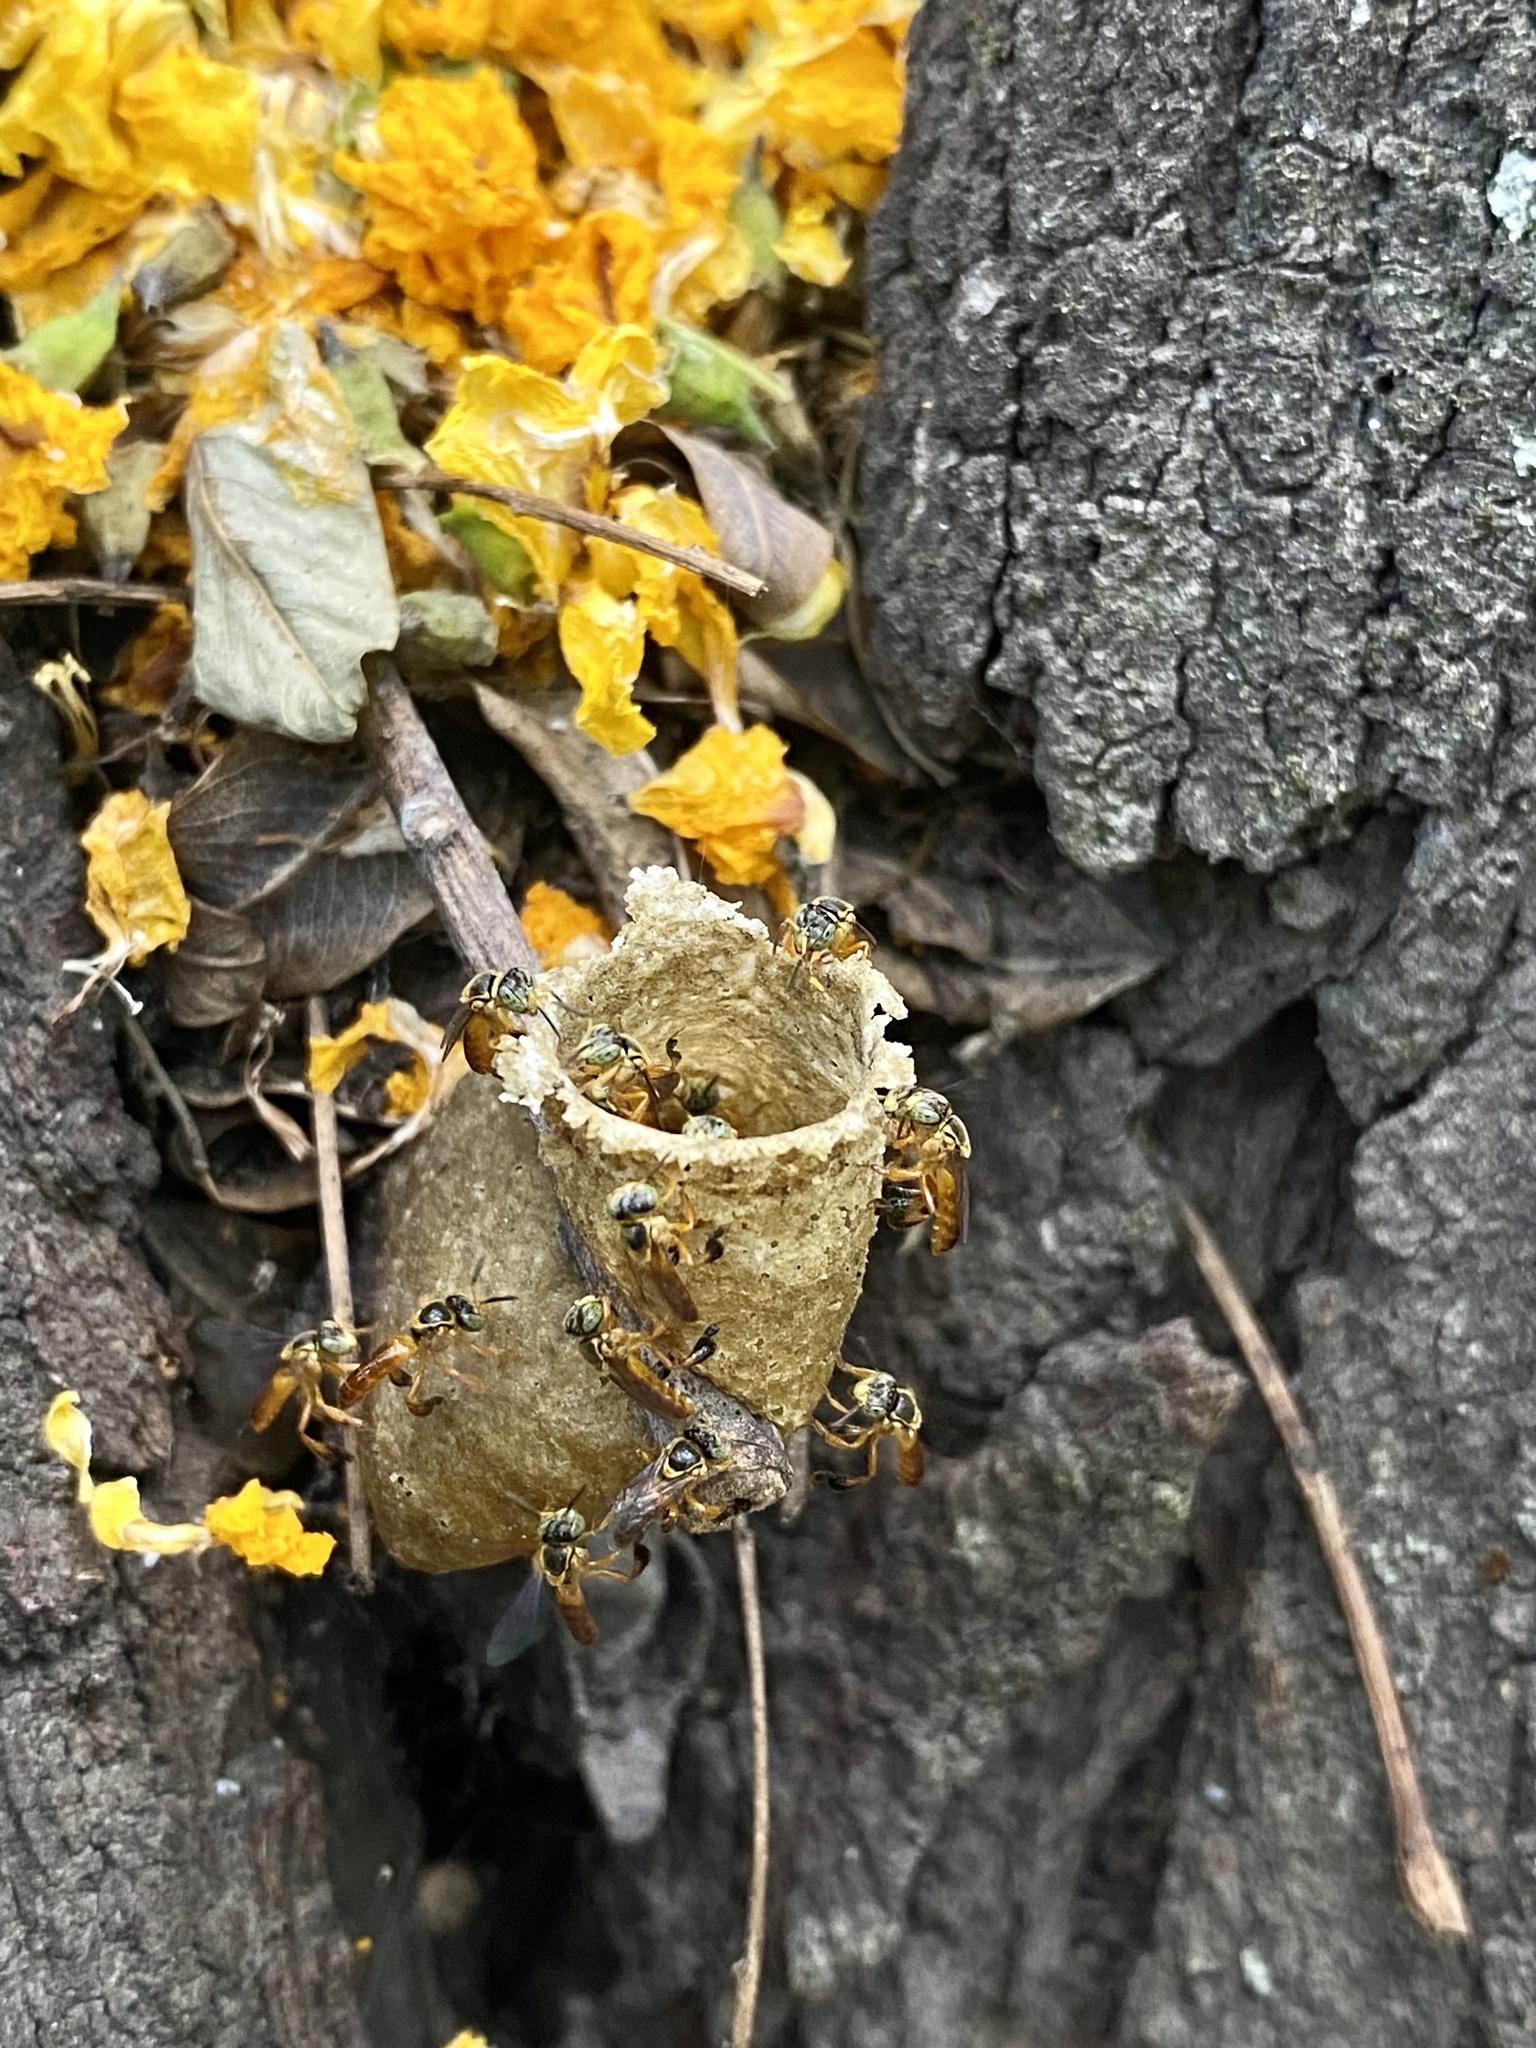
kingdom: Animalia
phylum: Arthropoda
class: Insecta
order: Hymenoptera
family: Apidae
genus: Tetragonisca
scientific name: Tetragonisca fiebrigi
